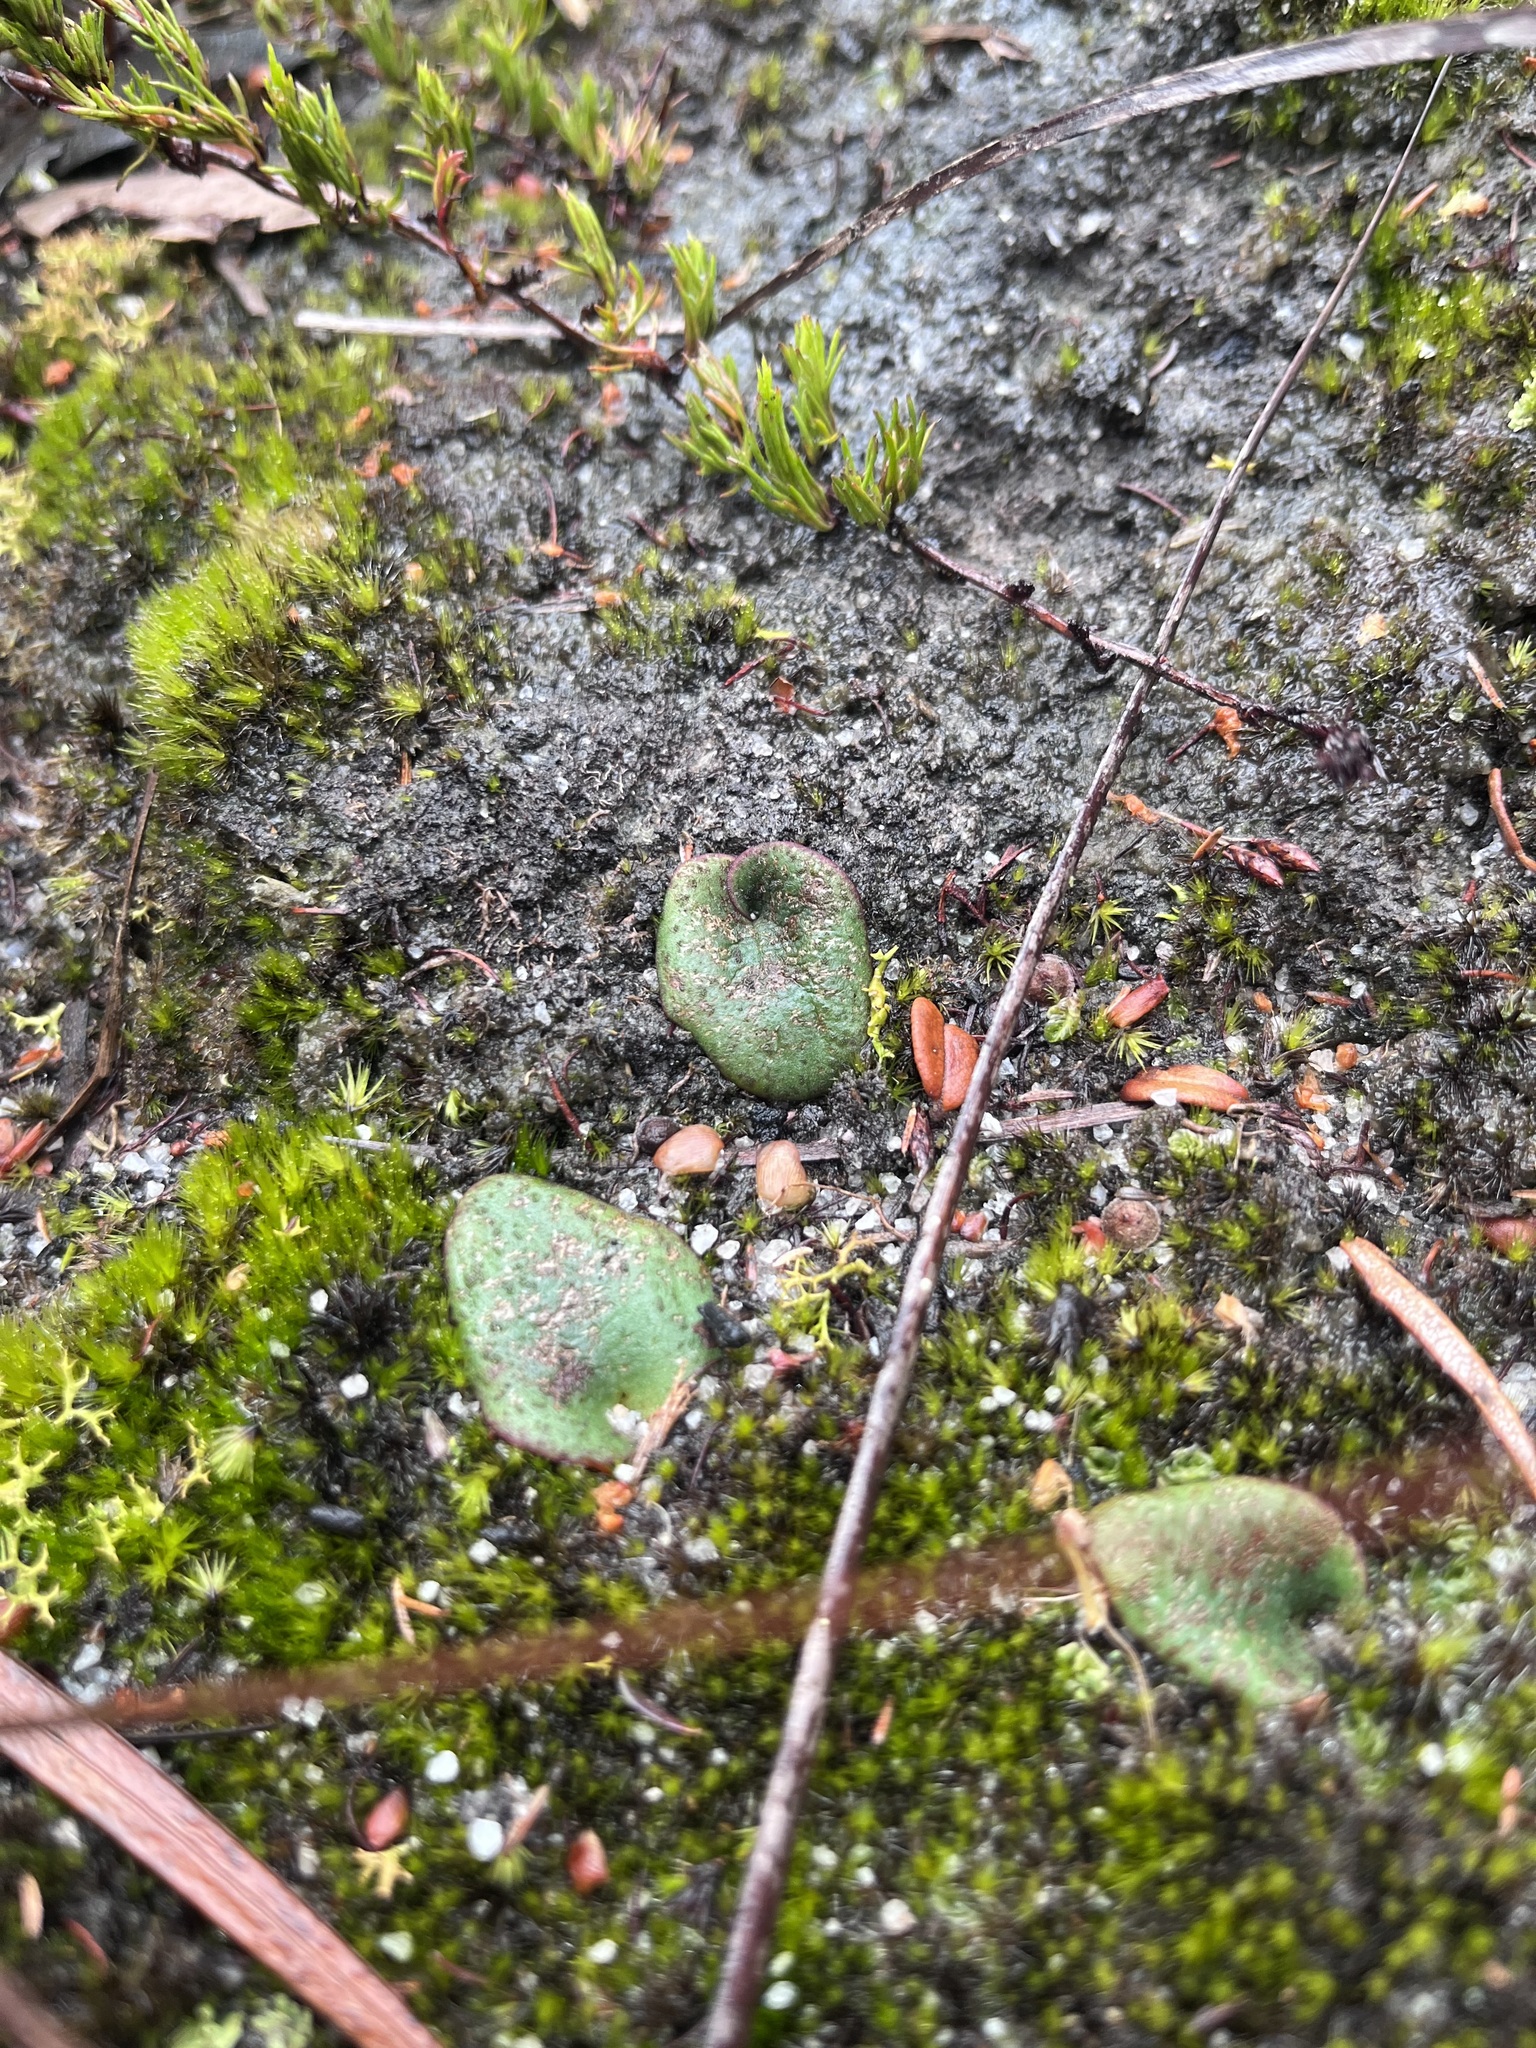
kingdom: Plantae
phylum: Tracheophyta
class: Liliopsida
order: Asparagales
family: Orchidaceae
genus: Pyrorchis
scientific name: Pyrorchis nigricans
